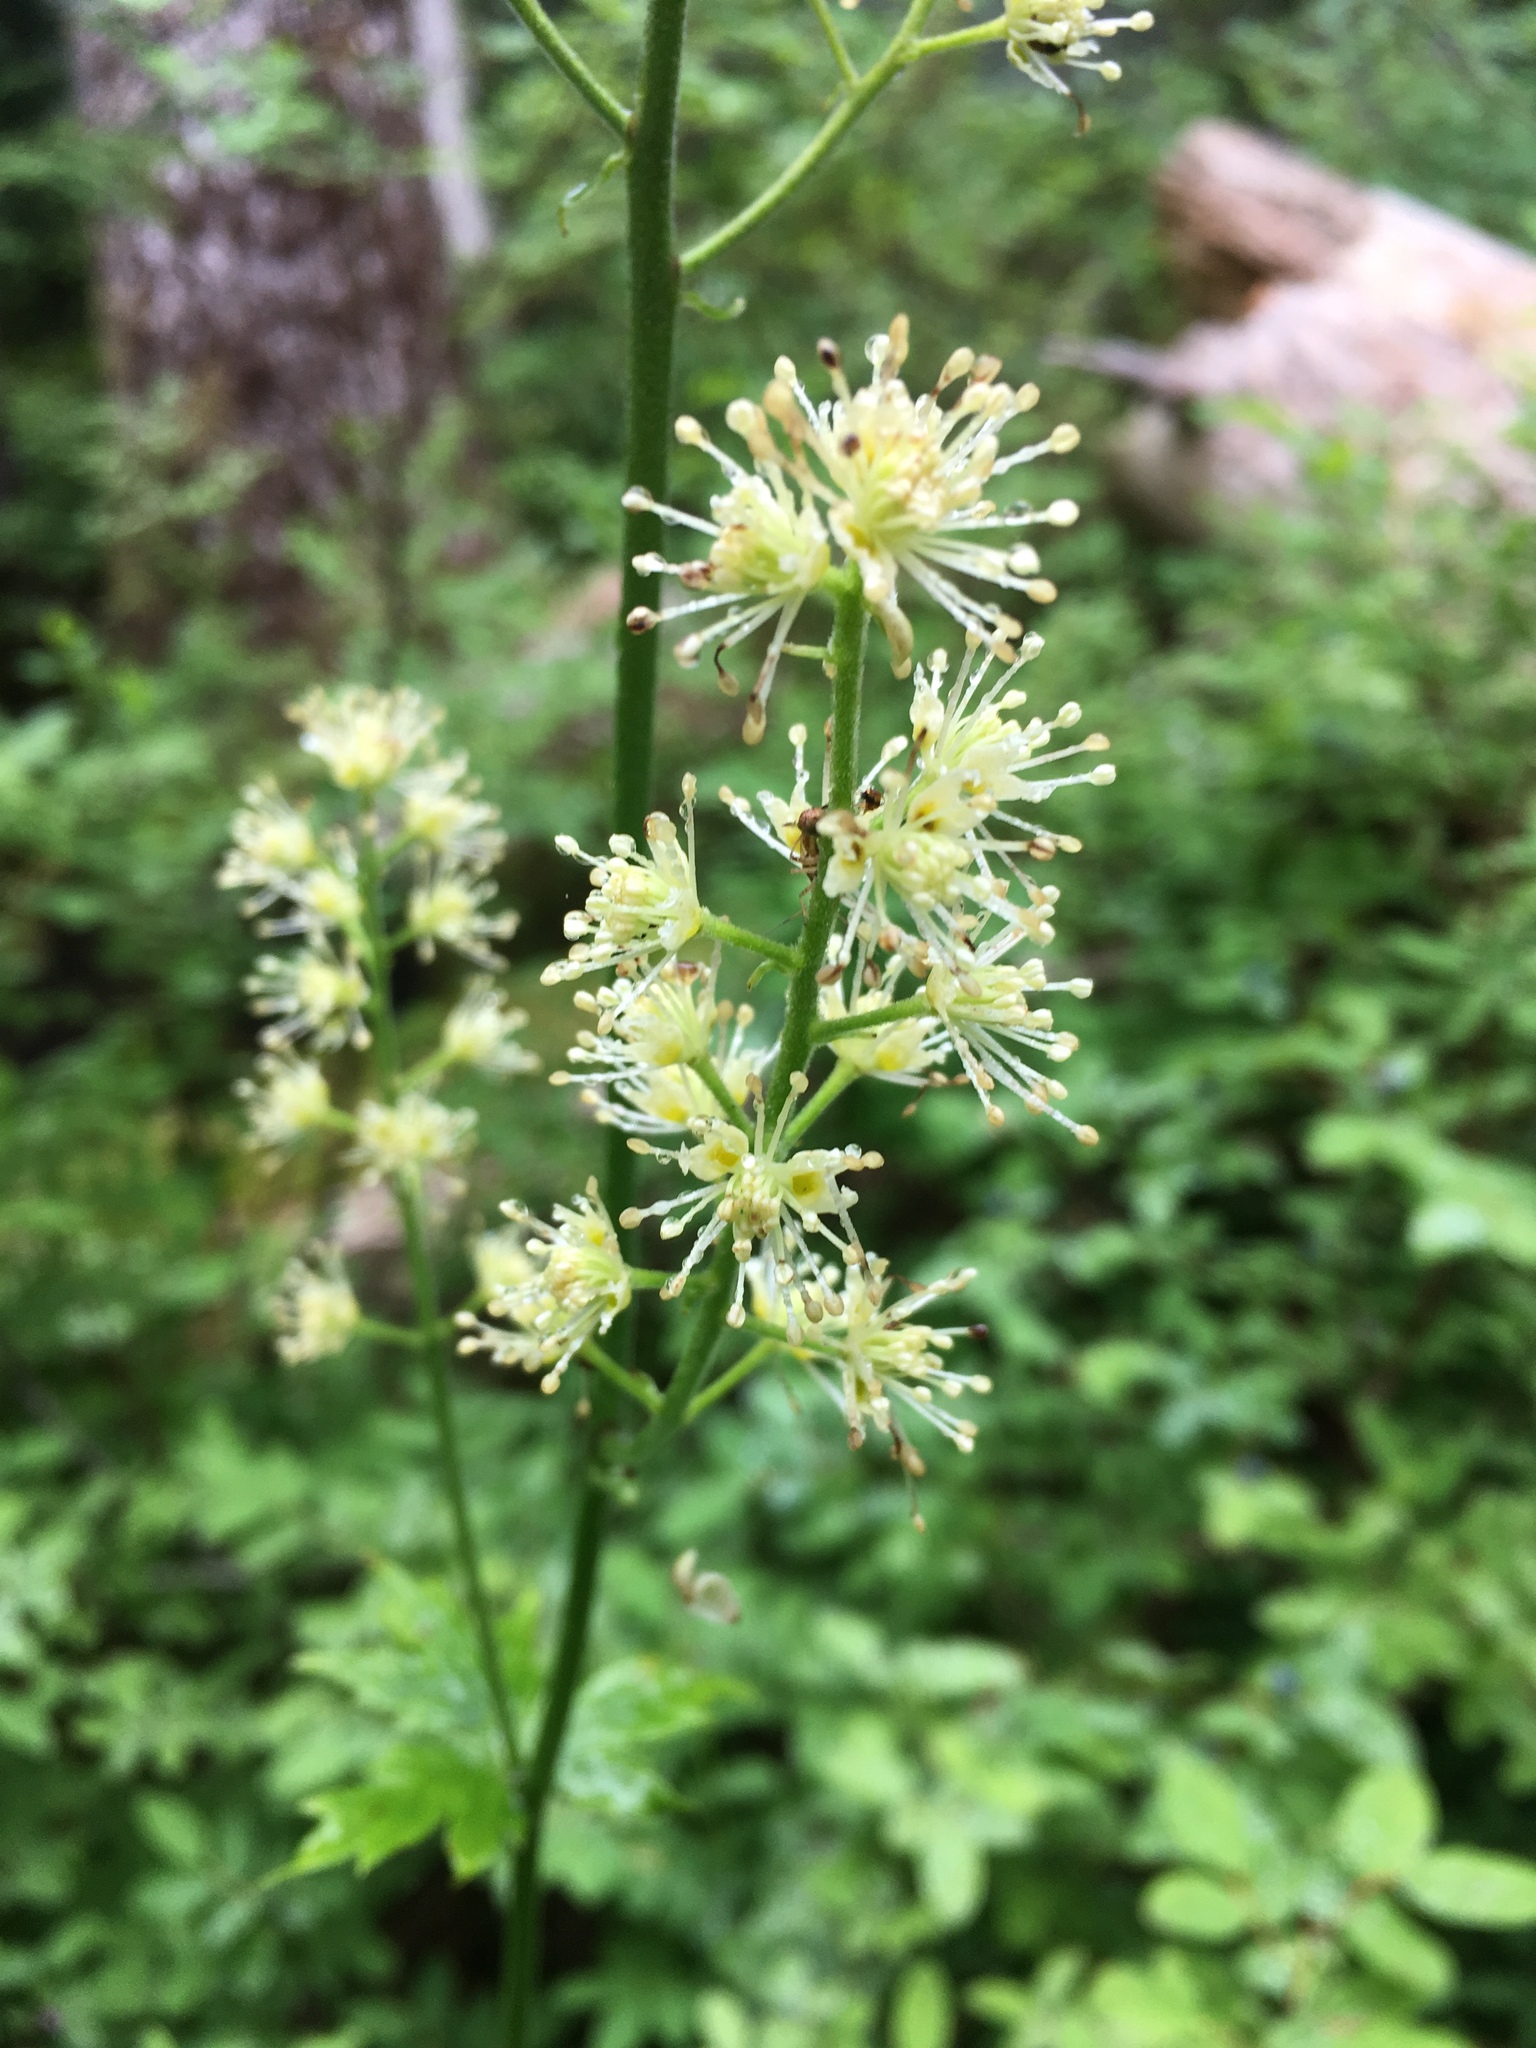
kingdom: Plantae
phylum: Tracheophyta
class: Magnoliopsida
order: Ranunculales
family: Ranunculaceae
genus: Actaea
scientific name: Actaea laciniata
